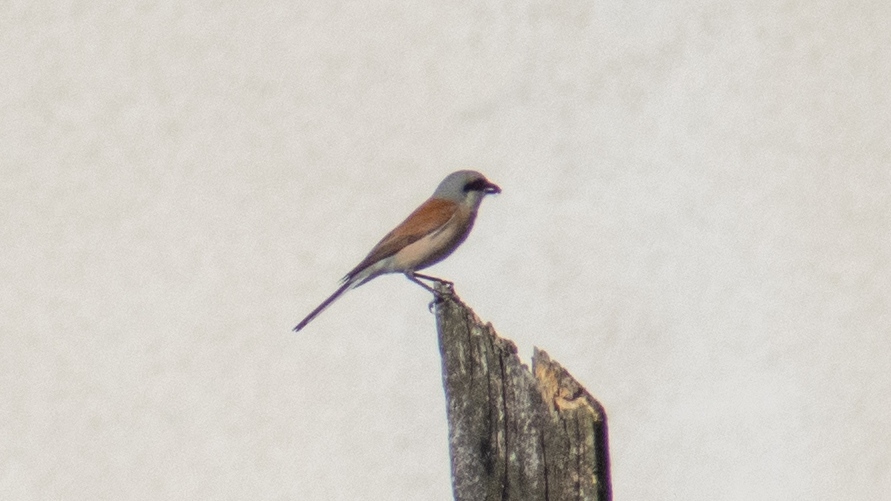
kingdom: Animalia
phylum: Chordata
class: Aves
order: Passeriformes
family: Laniidae
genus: Lanius
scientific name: Lanius collurio
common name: Red-backed shrike
